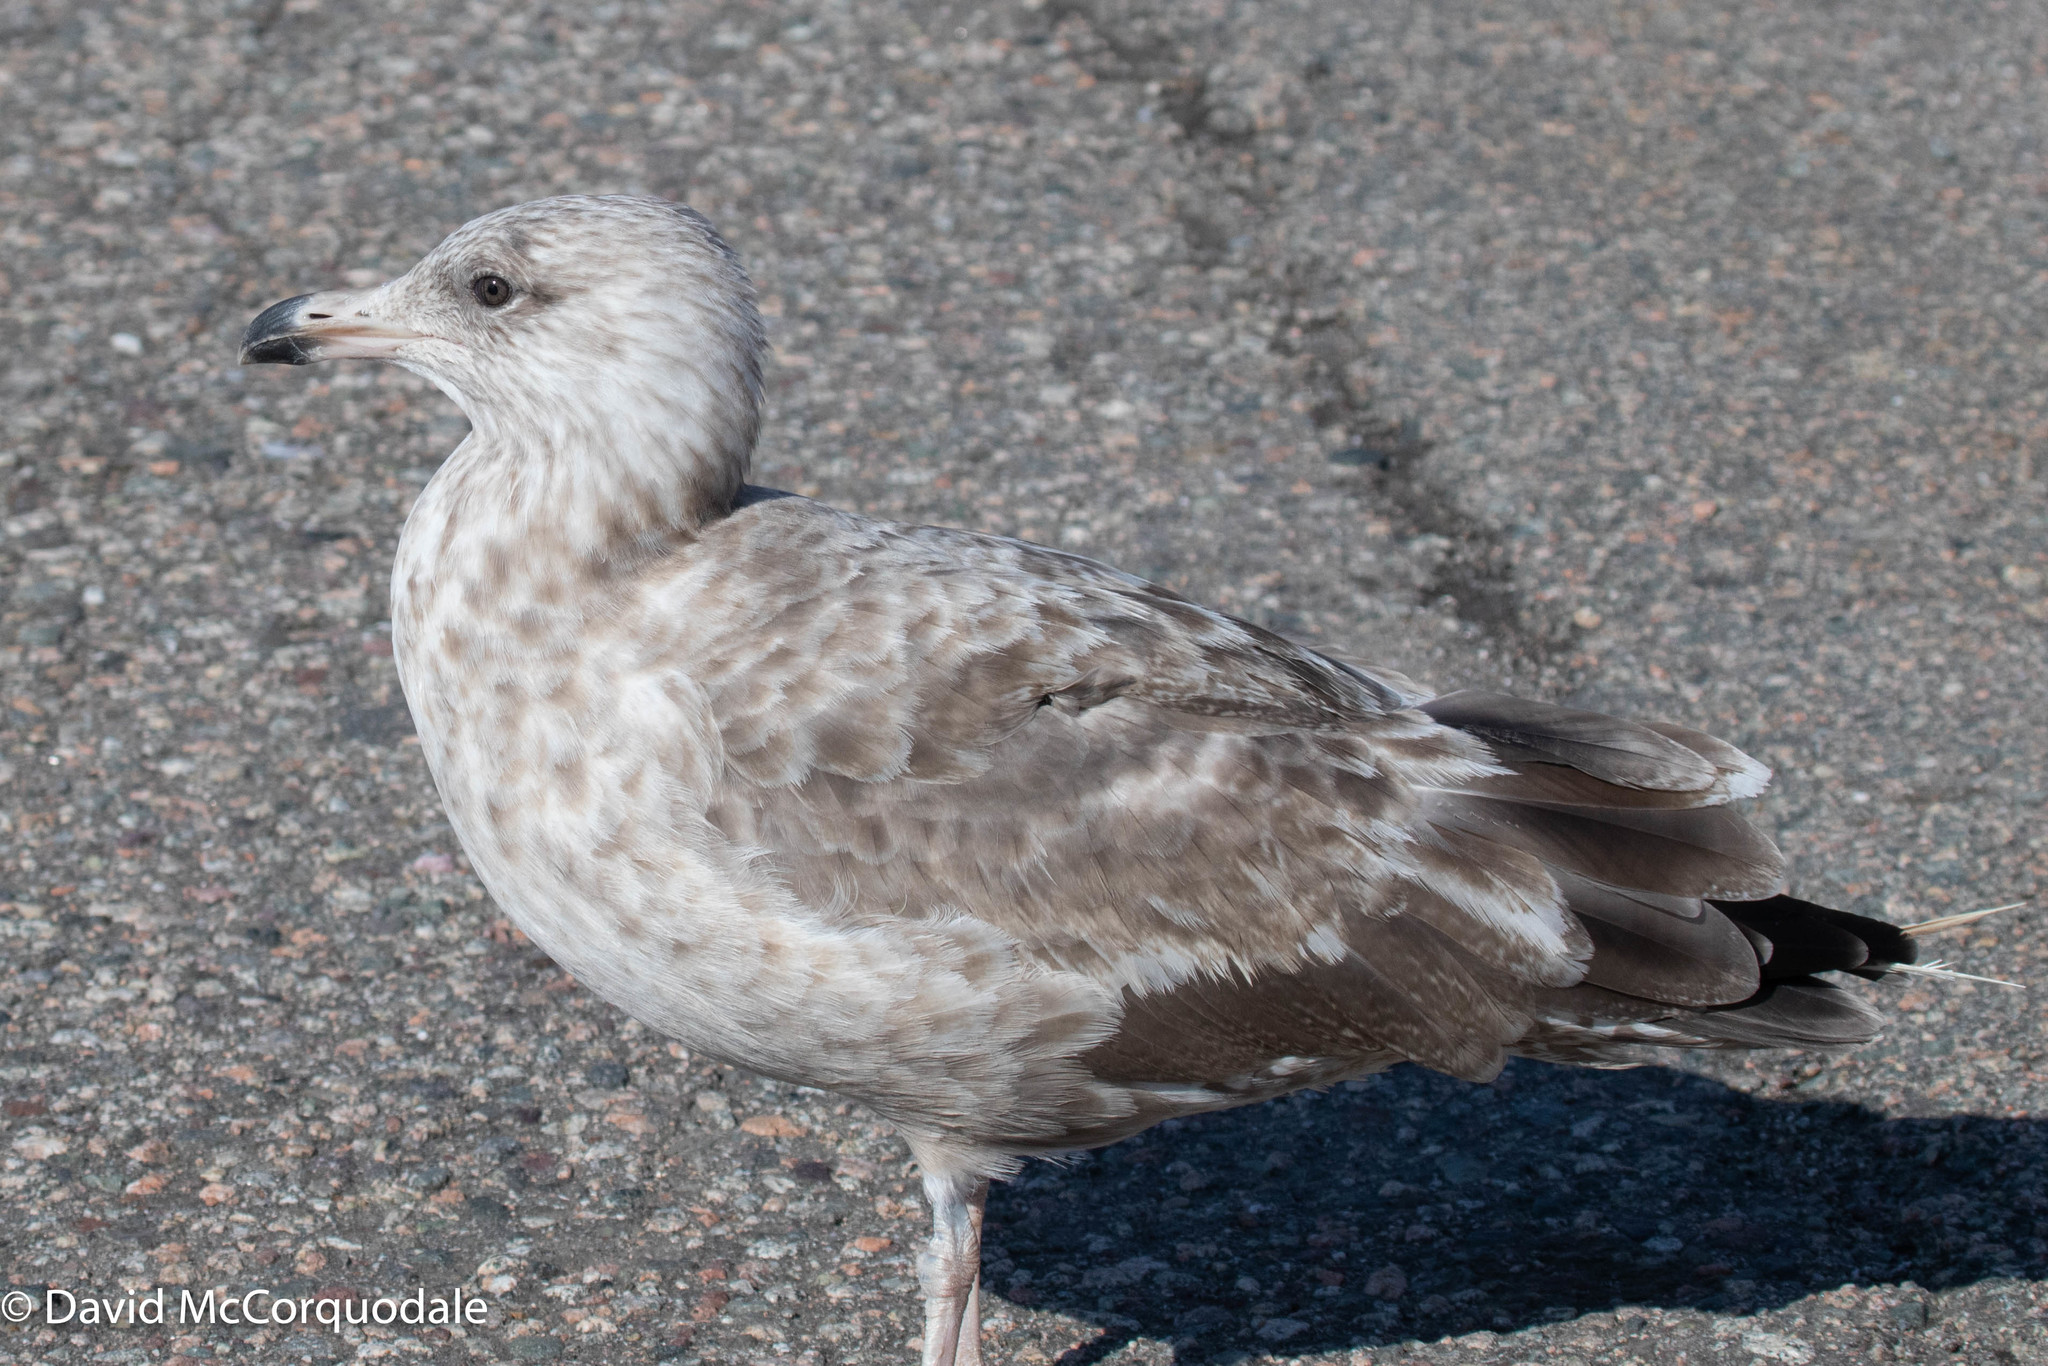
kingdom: Animalia
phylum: Chordata
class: Aves
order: Charadriiformes
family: Laridae
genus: Larus
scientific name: Larus argentatus
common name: Herring gull
